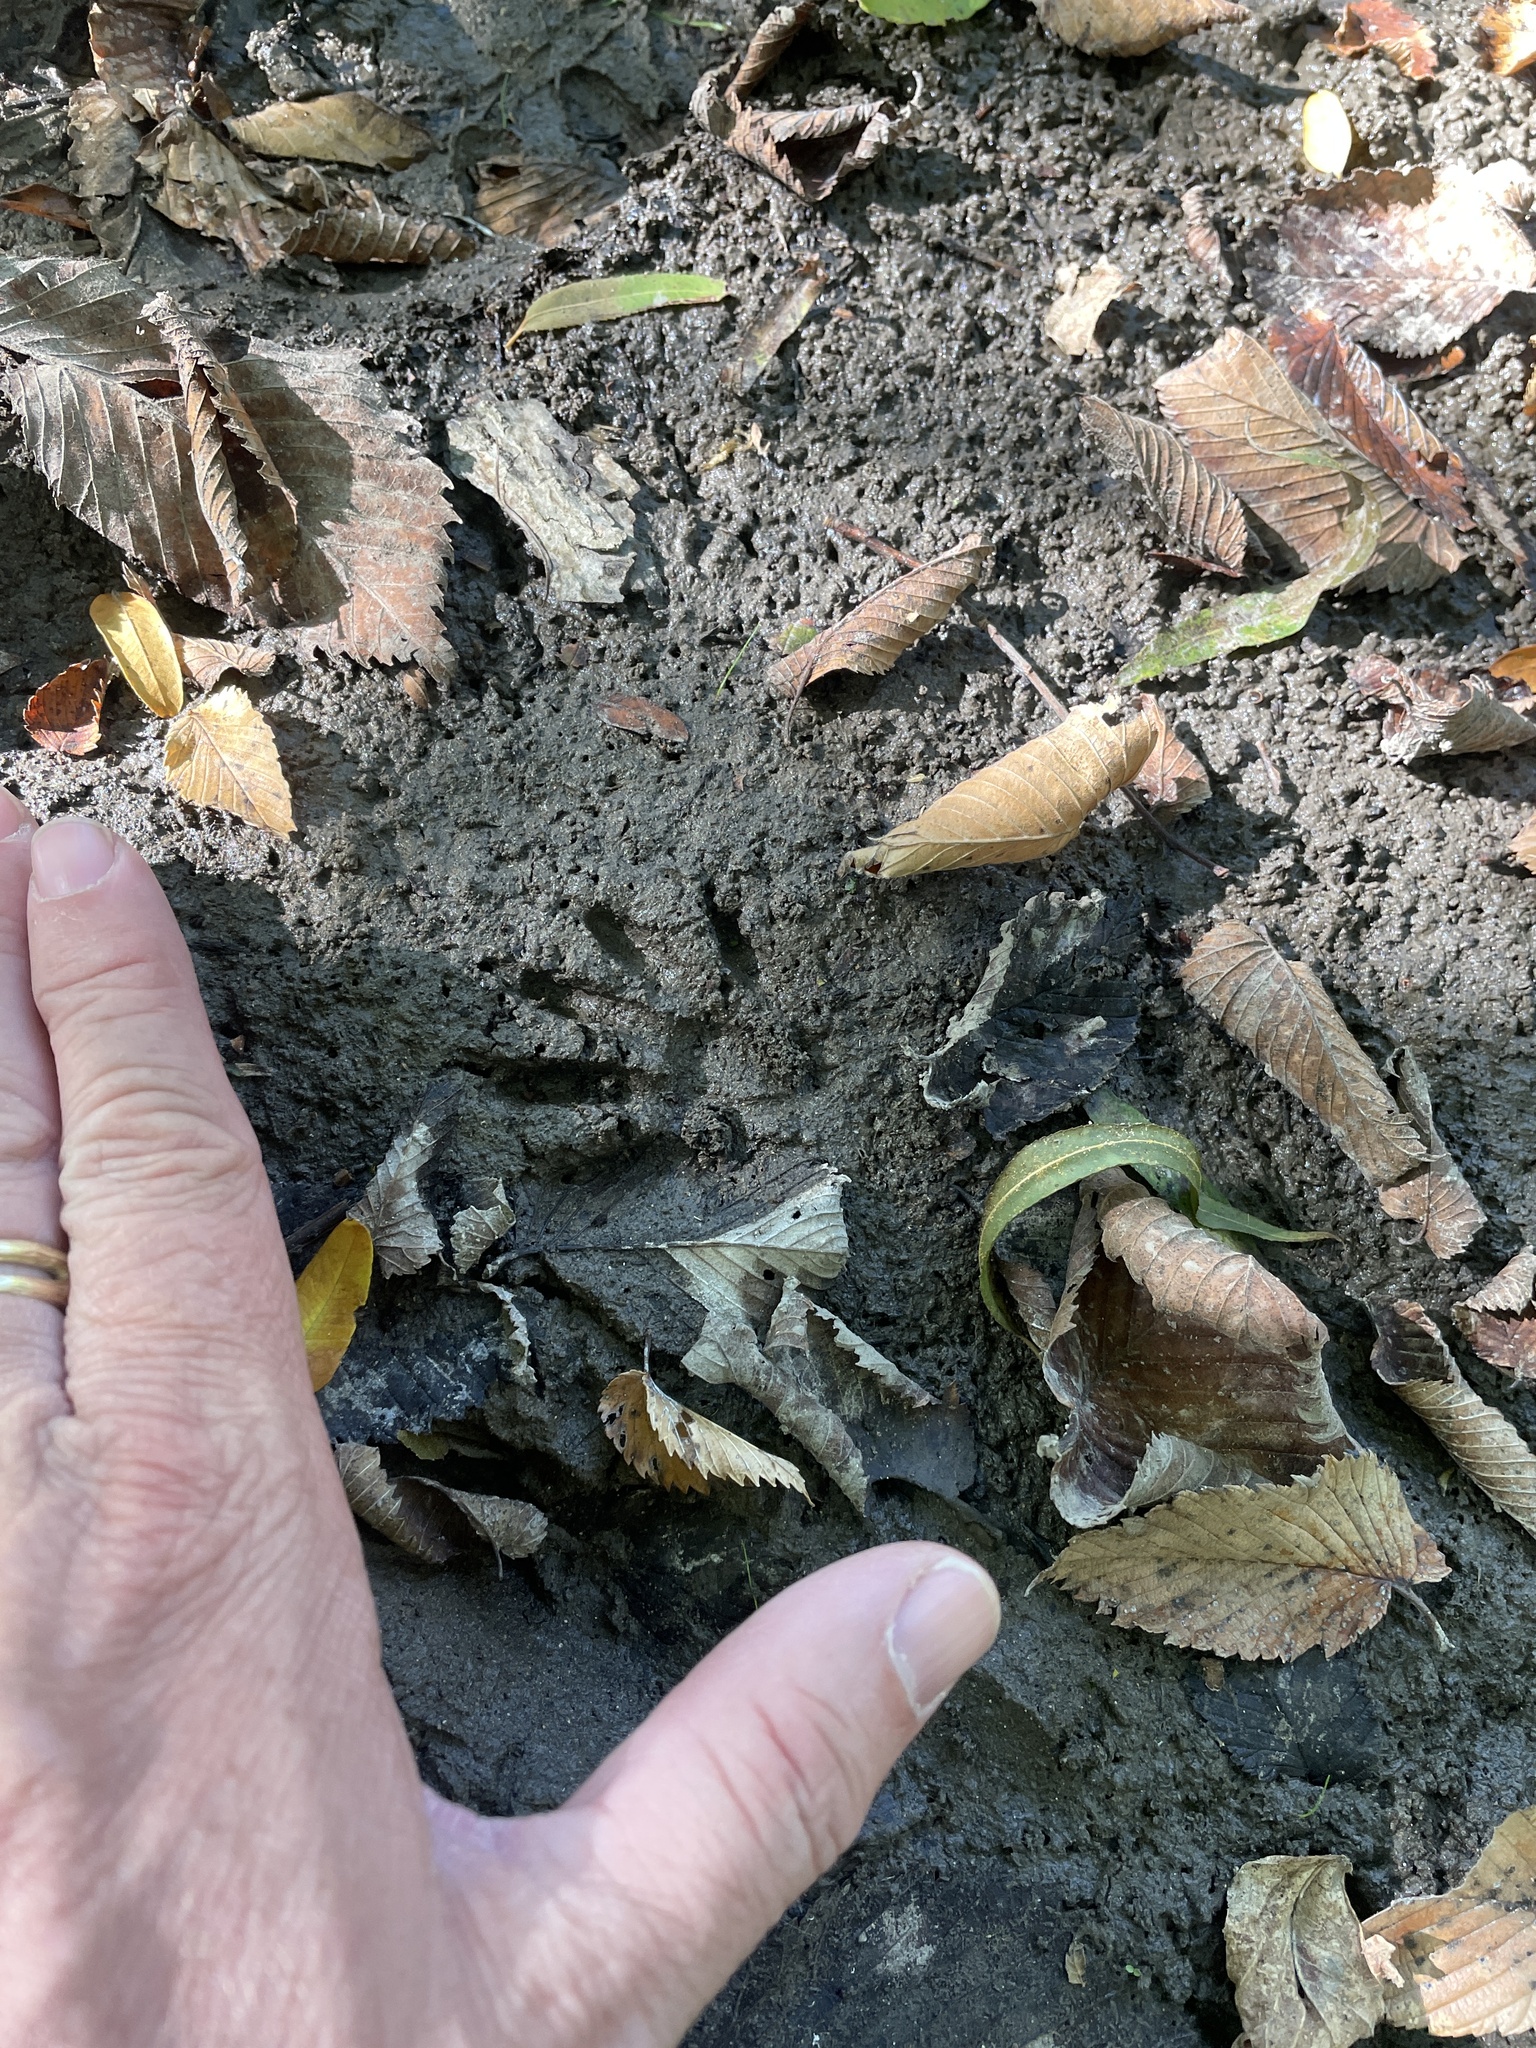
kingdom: Animalia
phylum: Chordata
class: Mammalia
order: Carnivora
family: Procyonidae
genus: Procyon
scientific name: Procyon lotor
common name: Raccoon
